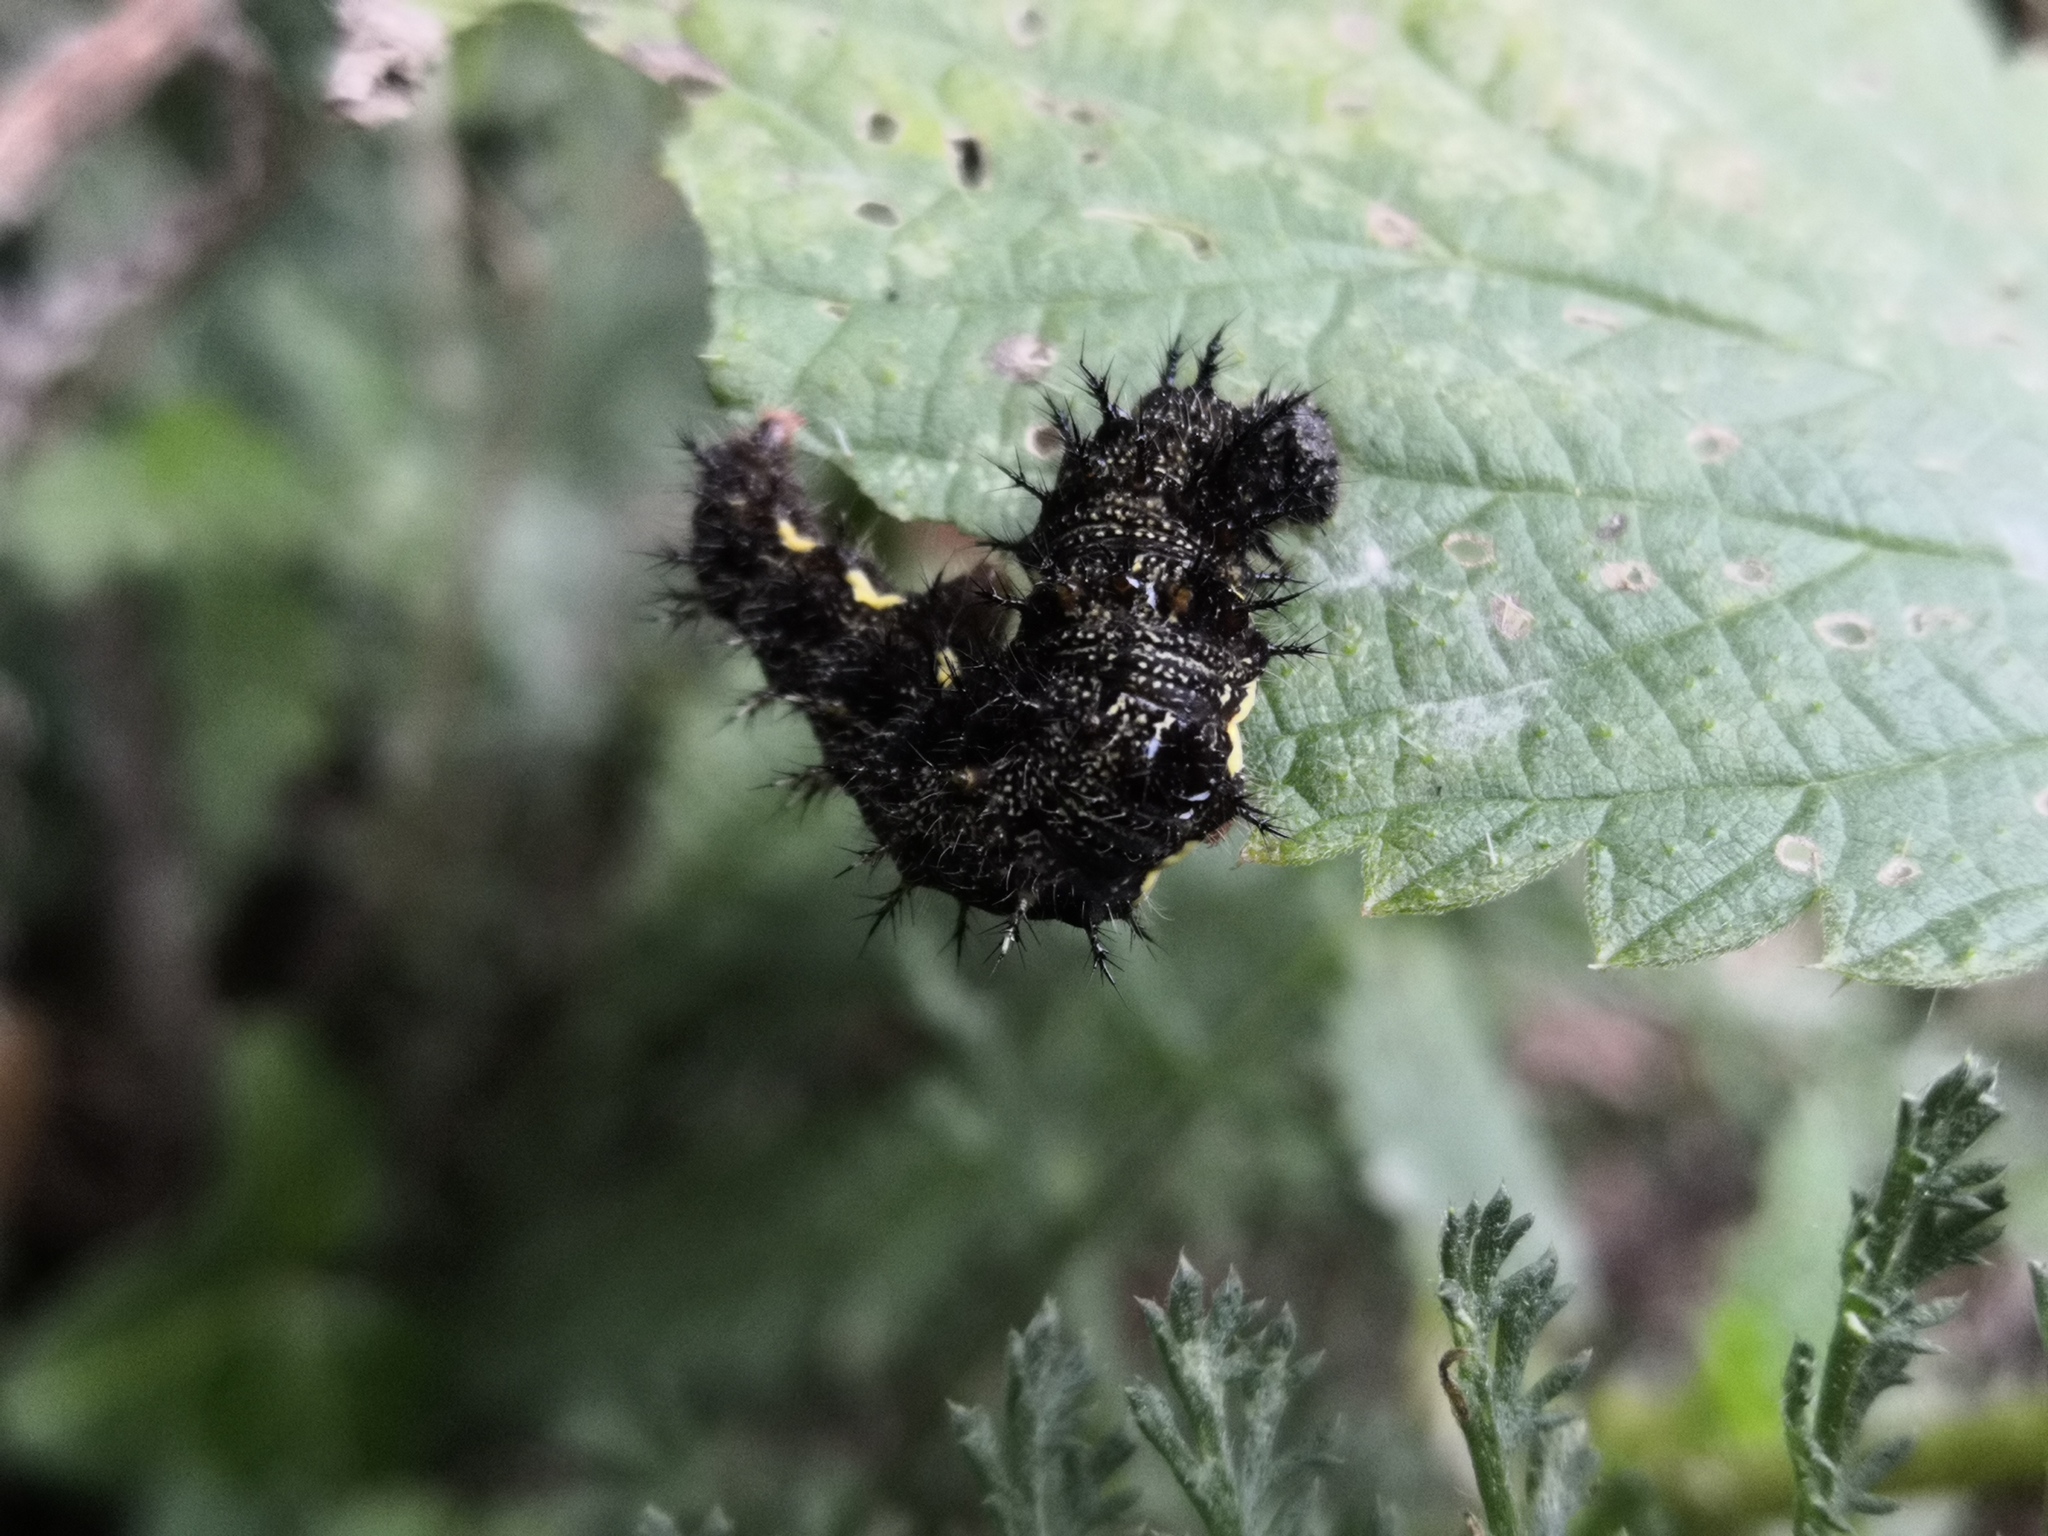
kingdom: Animalia
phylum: Arthropoda
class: Insecta
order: Lepidoptera
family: Nymphalidae
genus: Vanessa
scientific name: Vanessa atalanta
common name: Red admiral
